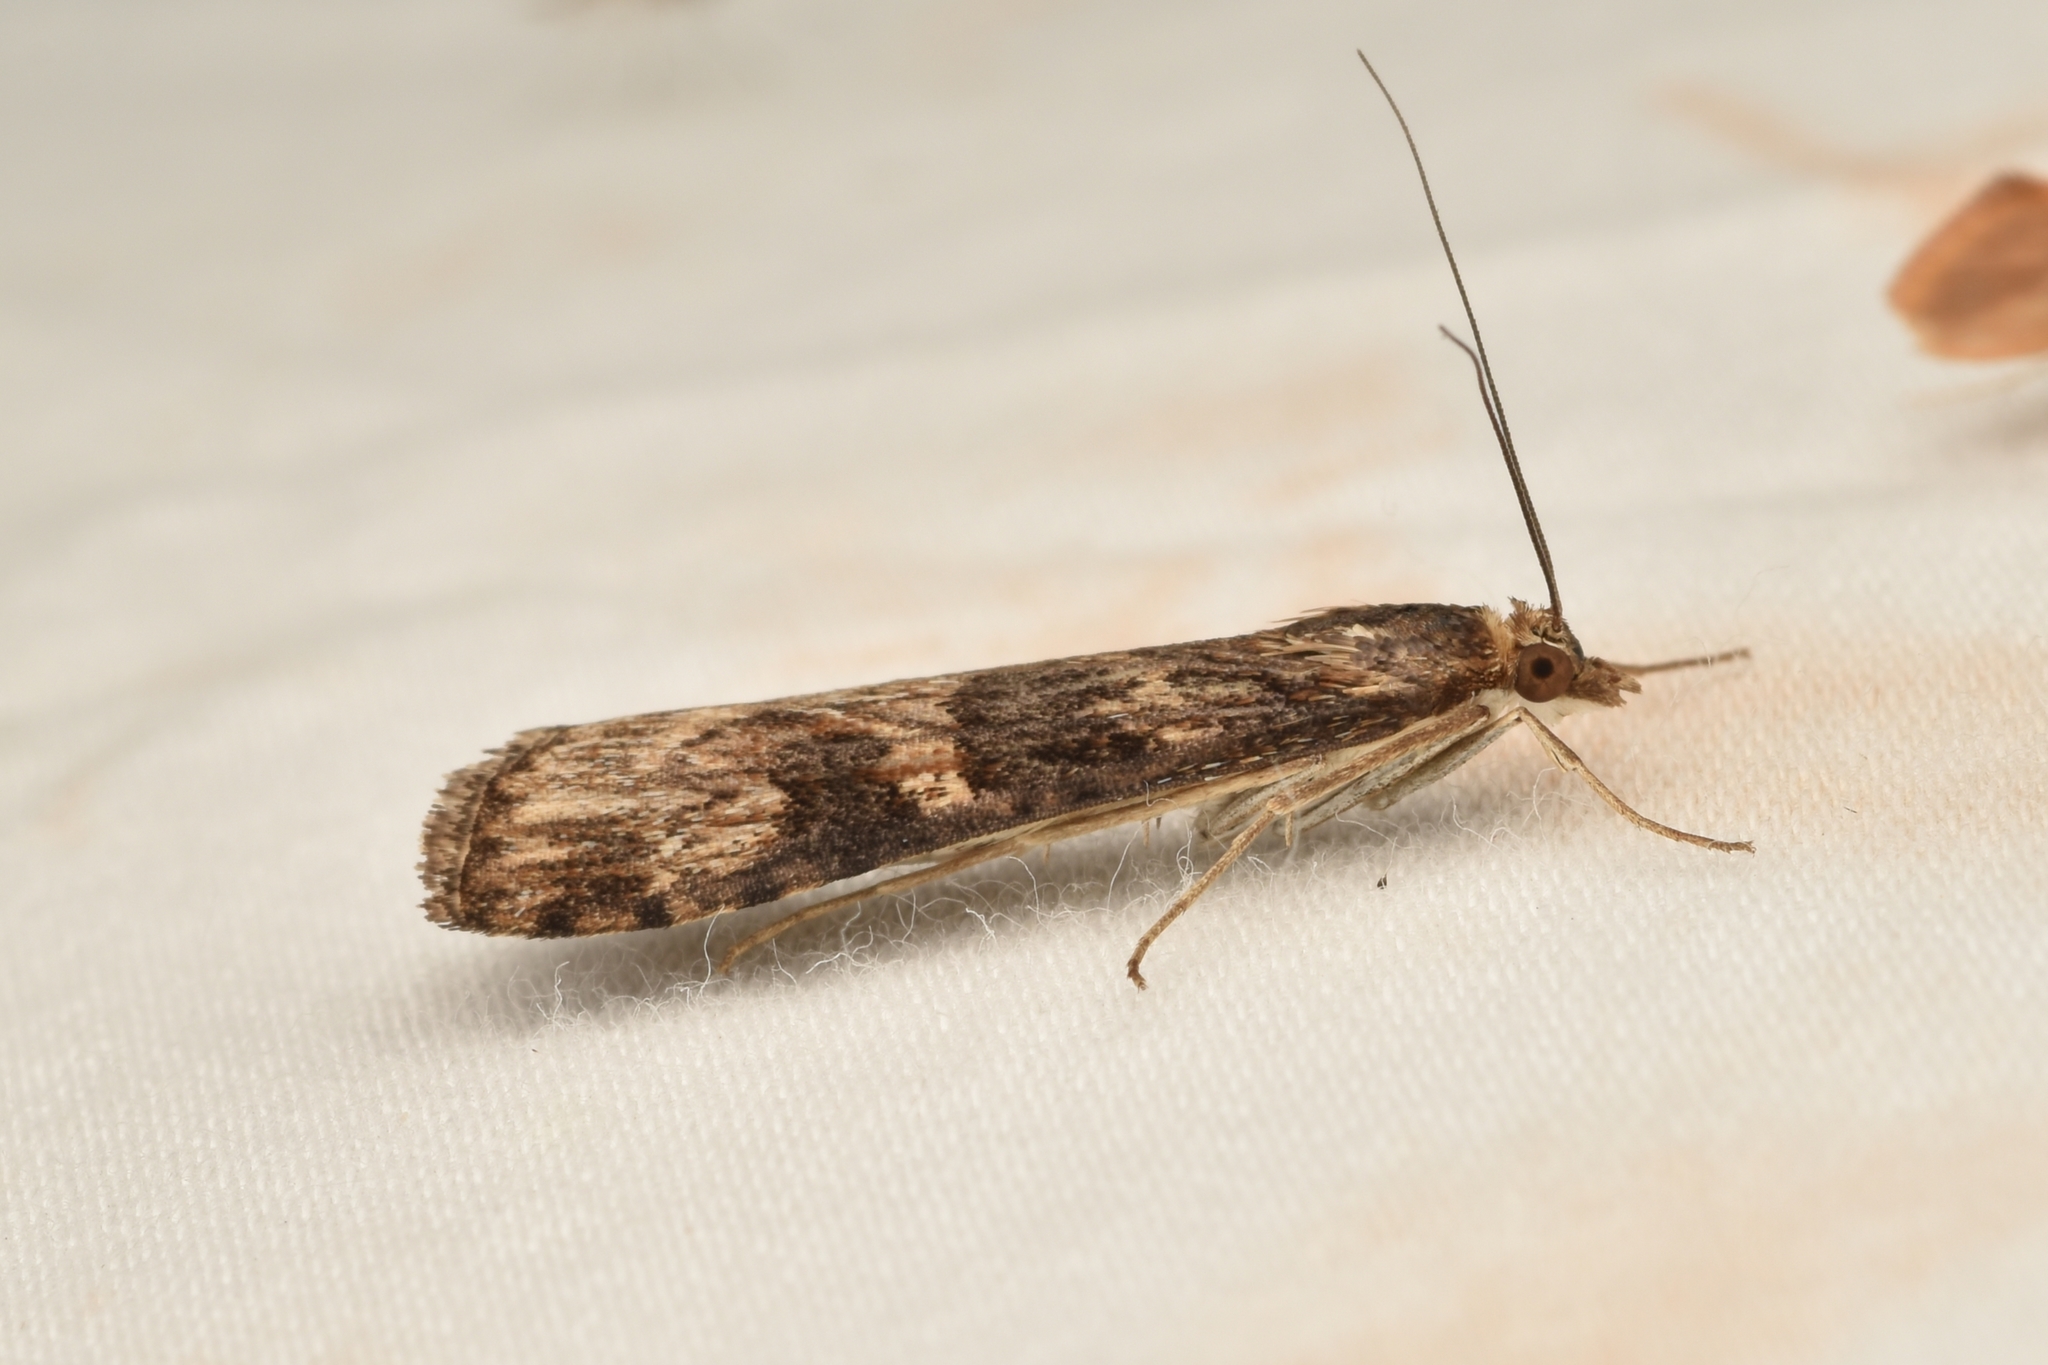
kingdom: Animalia
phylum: Arthropoda
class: Insecta
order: Lepidoptera
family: Crambidae
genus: Nomophila
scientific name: Nomophila nearctica
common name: American rush veneer
